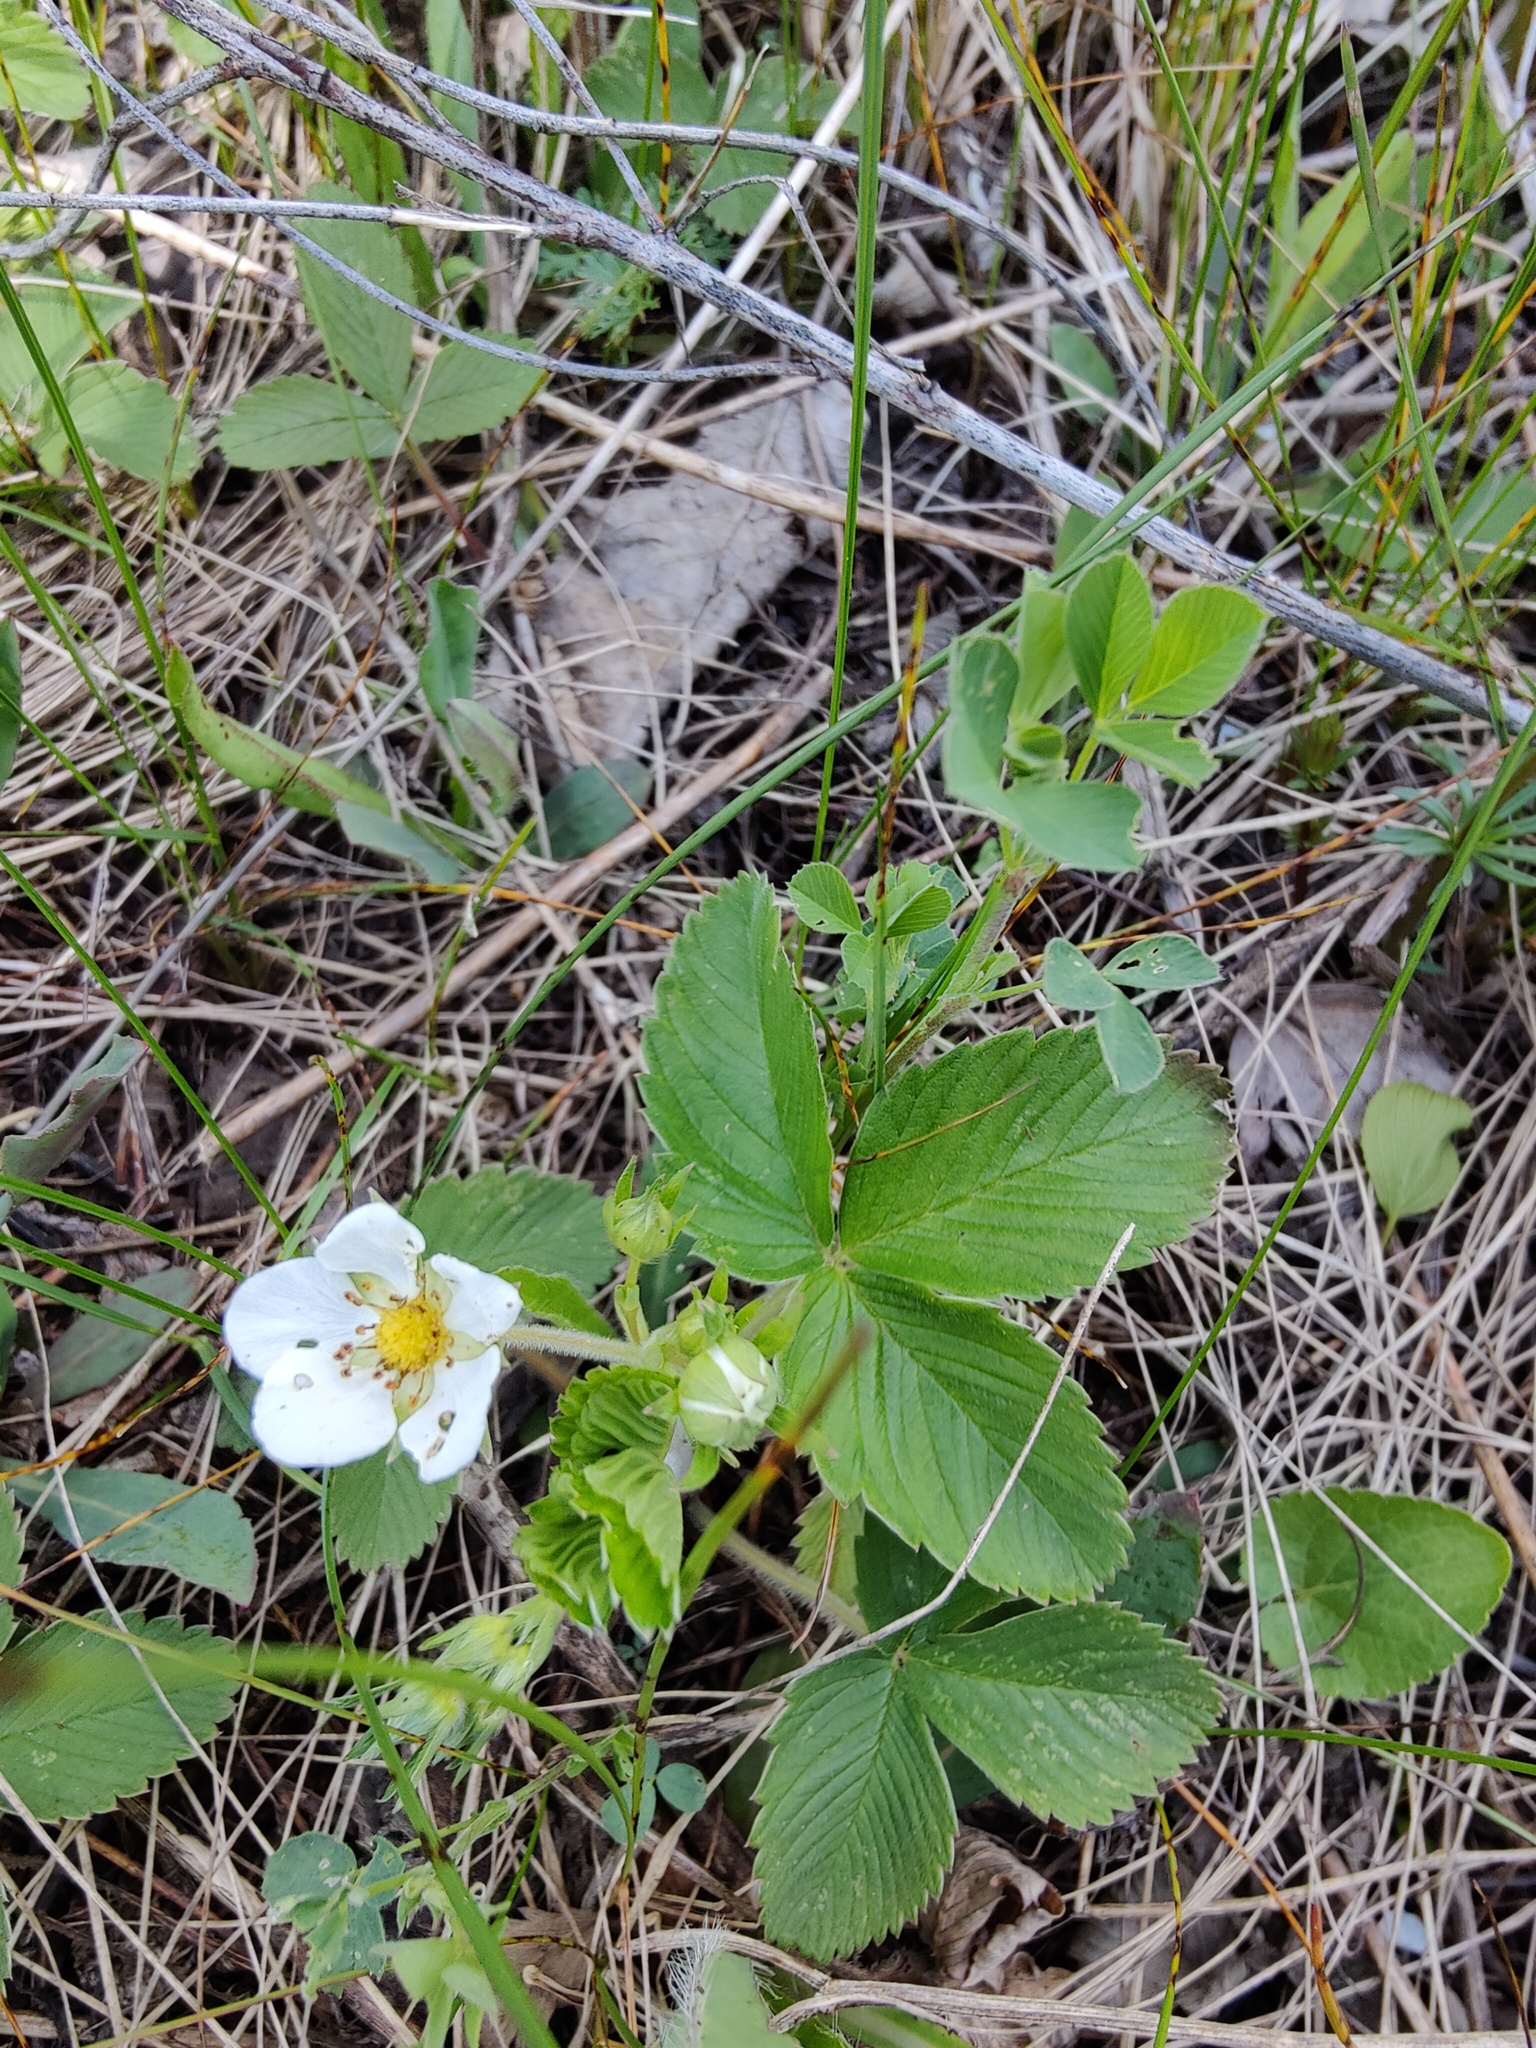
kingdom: Plantae
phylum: Tracheophyta
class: Magnoliopsida
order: Rosales
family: Rosaceae
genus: Fragaria
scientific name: Fragaria viridis
